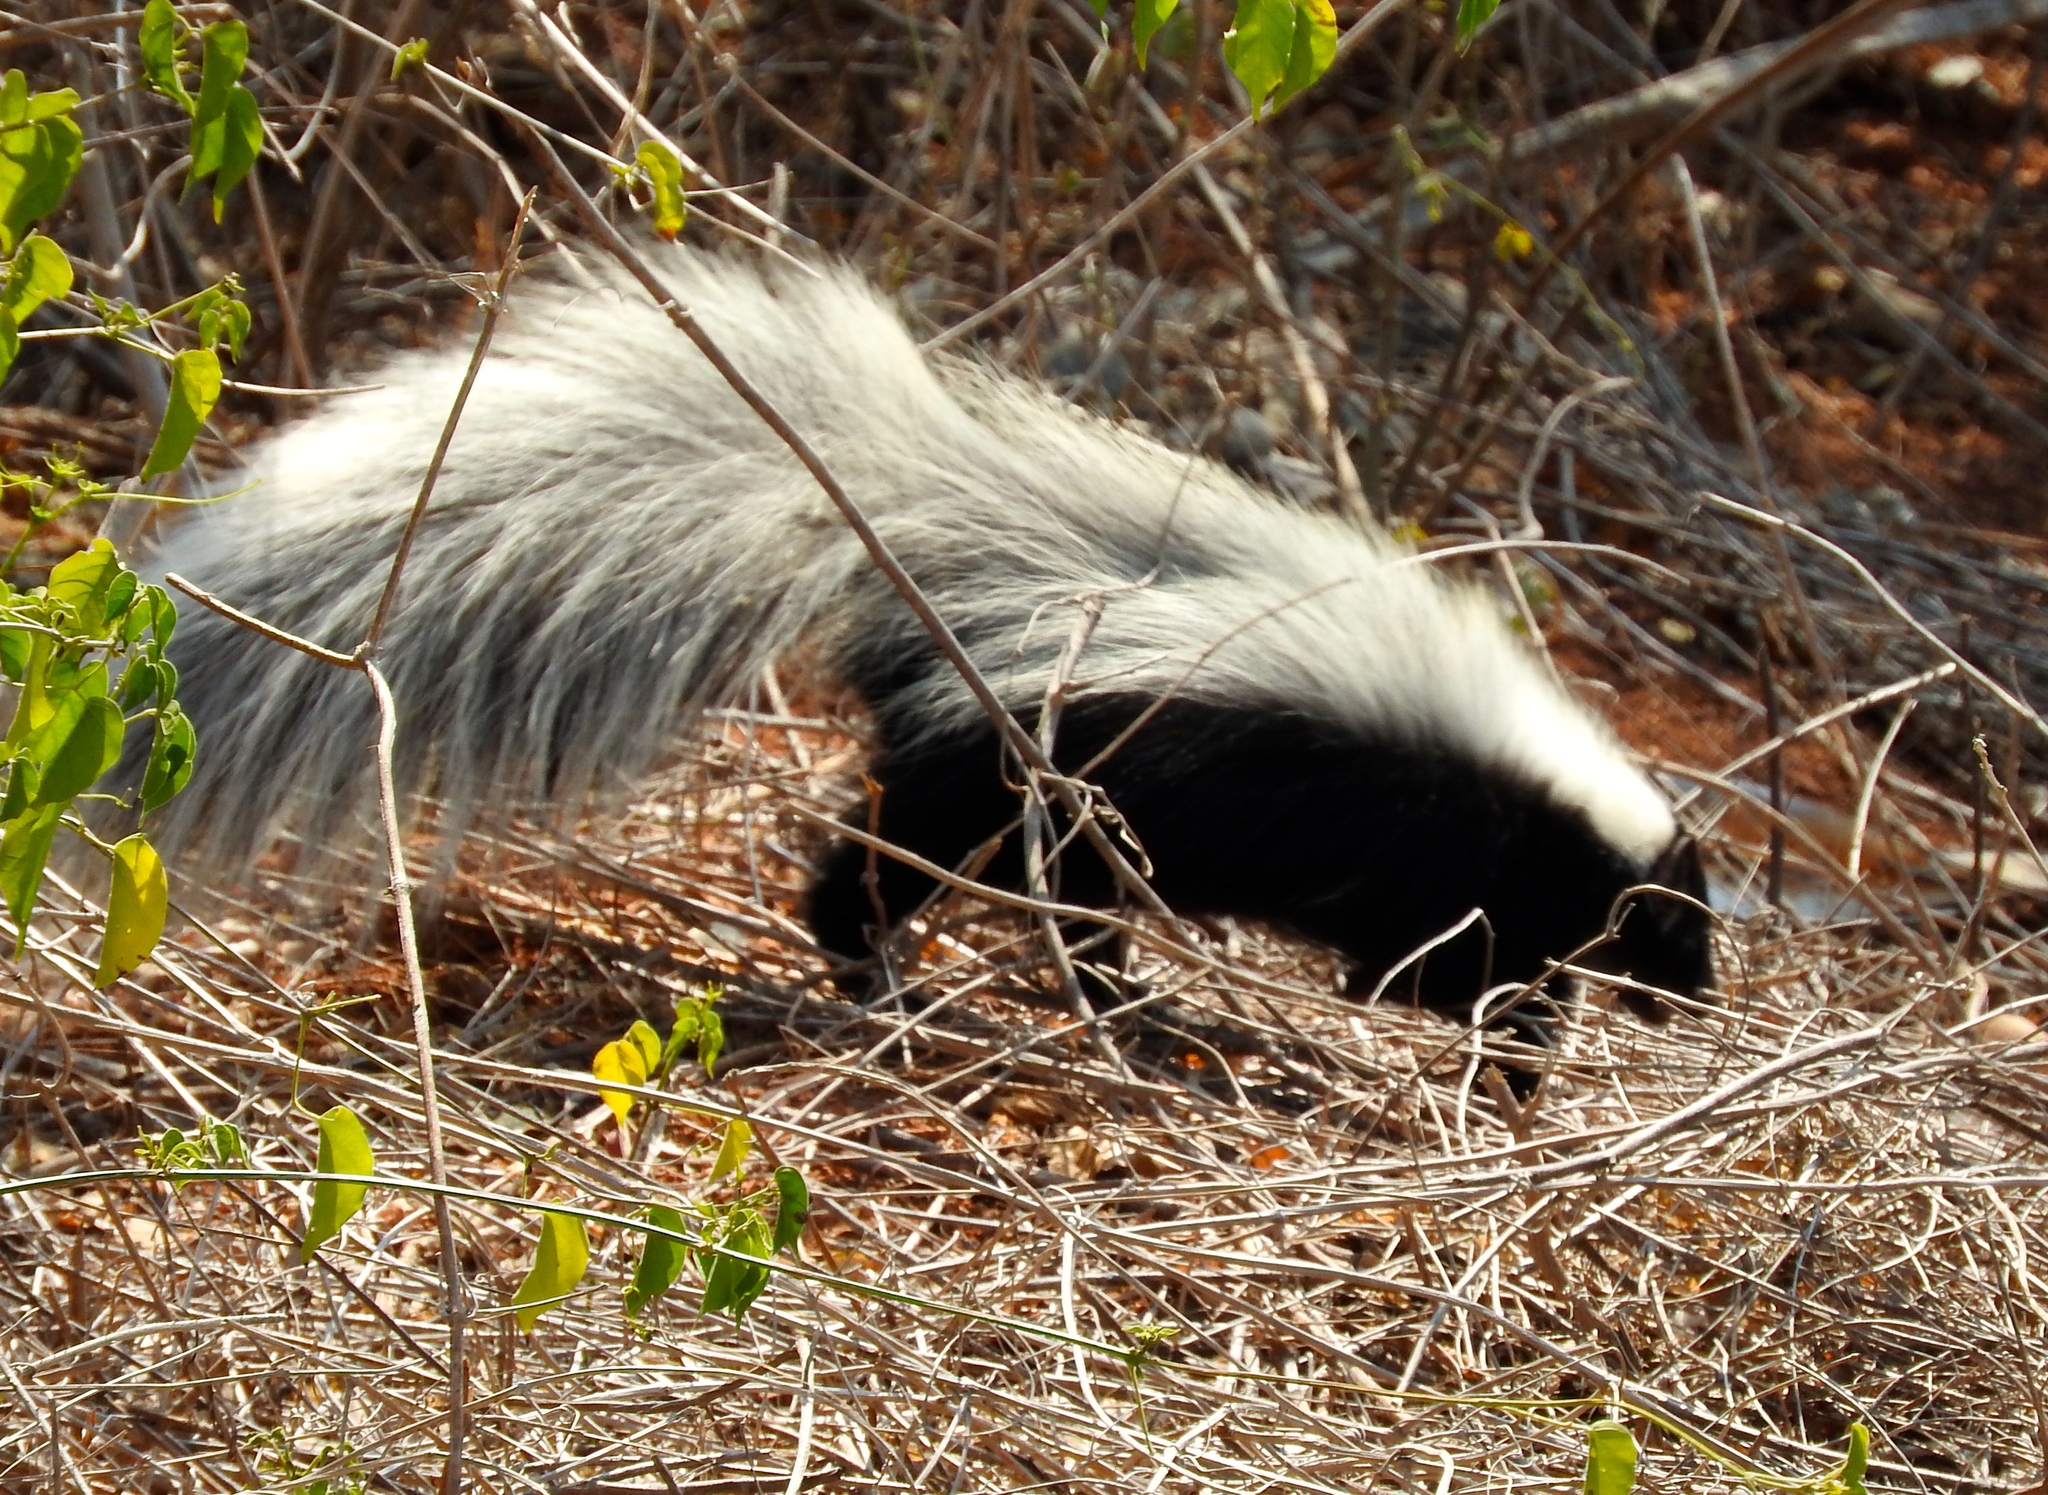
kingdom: Animalia
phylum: Chordata
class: Mammalia
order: Carnivora
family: Mephitidae
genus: Mephitis
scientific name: Mephitis macroura
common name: Hooded skunk
